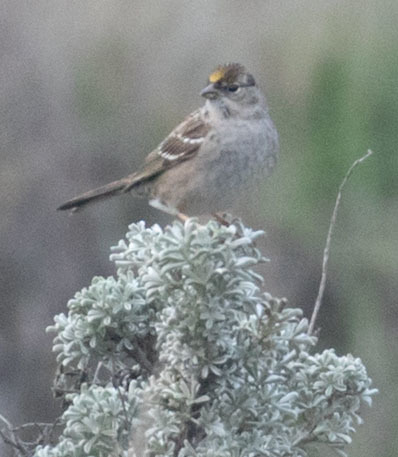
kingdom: Animalia
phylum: Chordata
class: Aves
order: Passeriformes
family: Passerellidae
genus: Zonotrichia
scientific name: Zonotrichia atricapilla
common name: Golden-crowned sparrow
